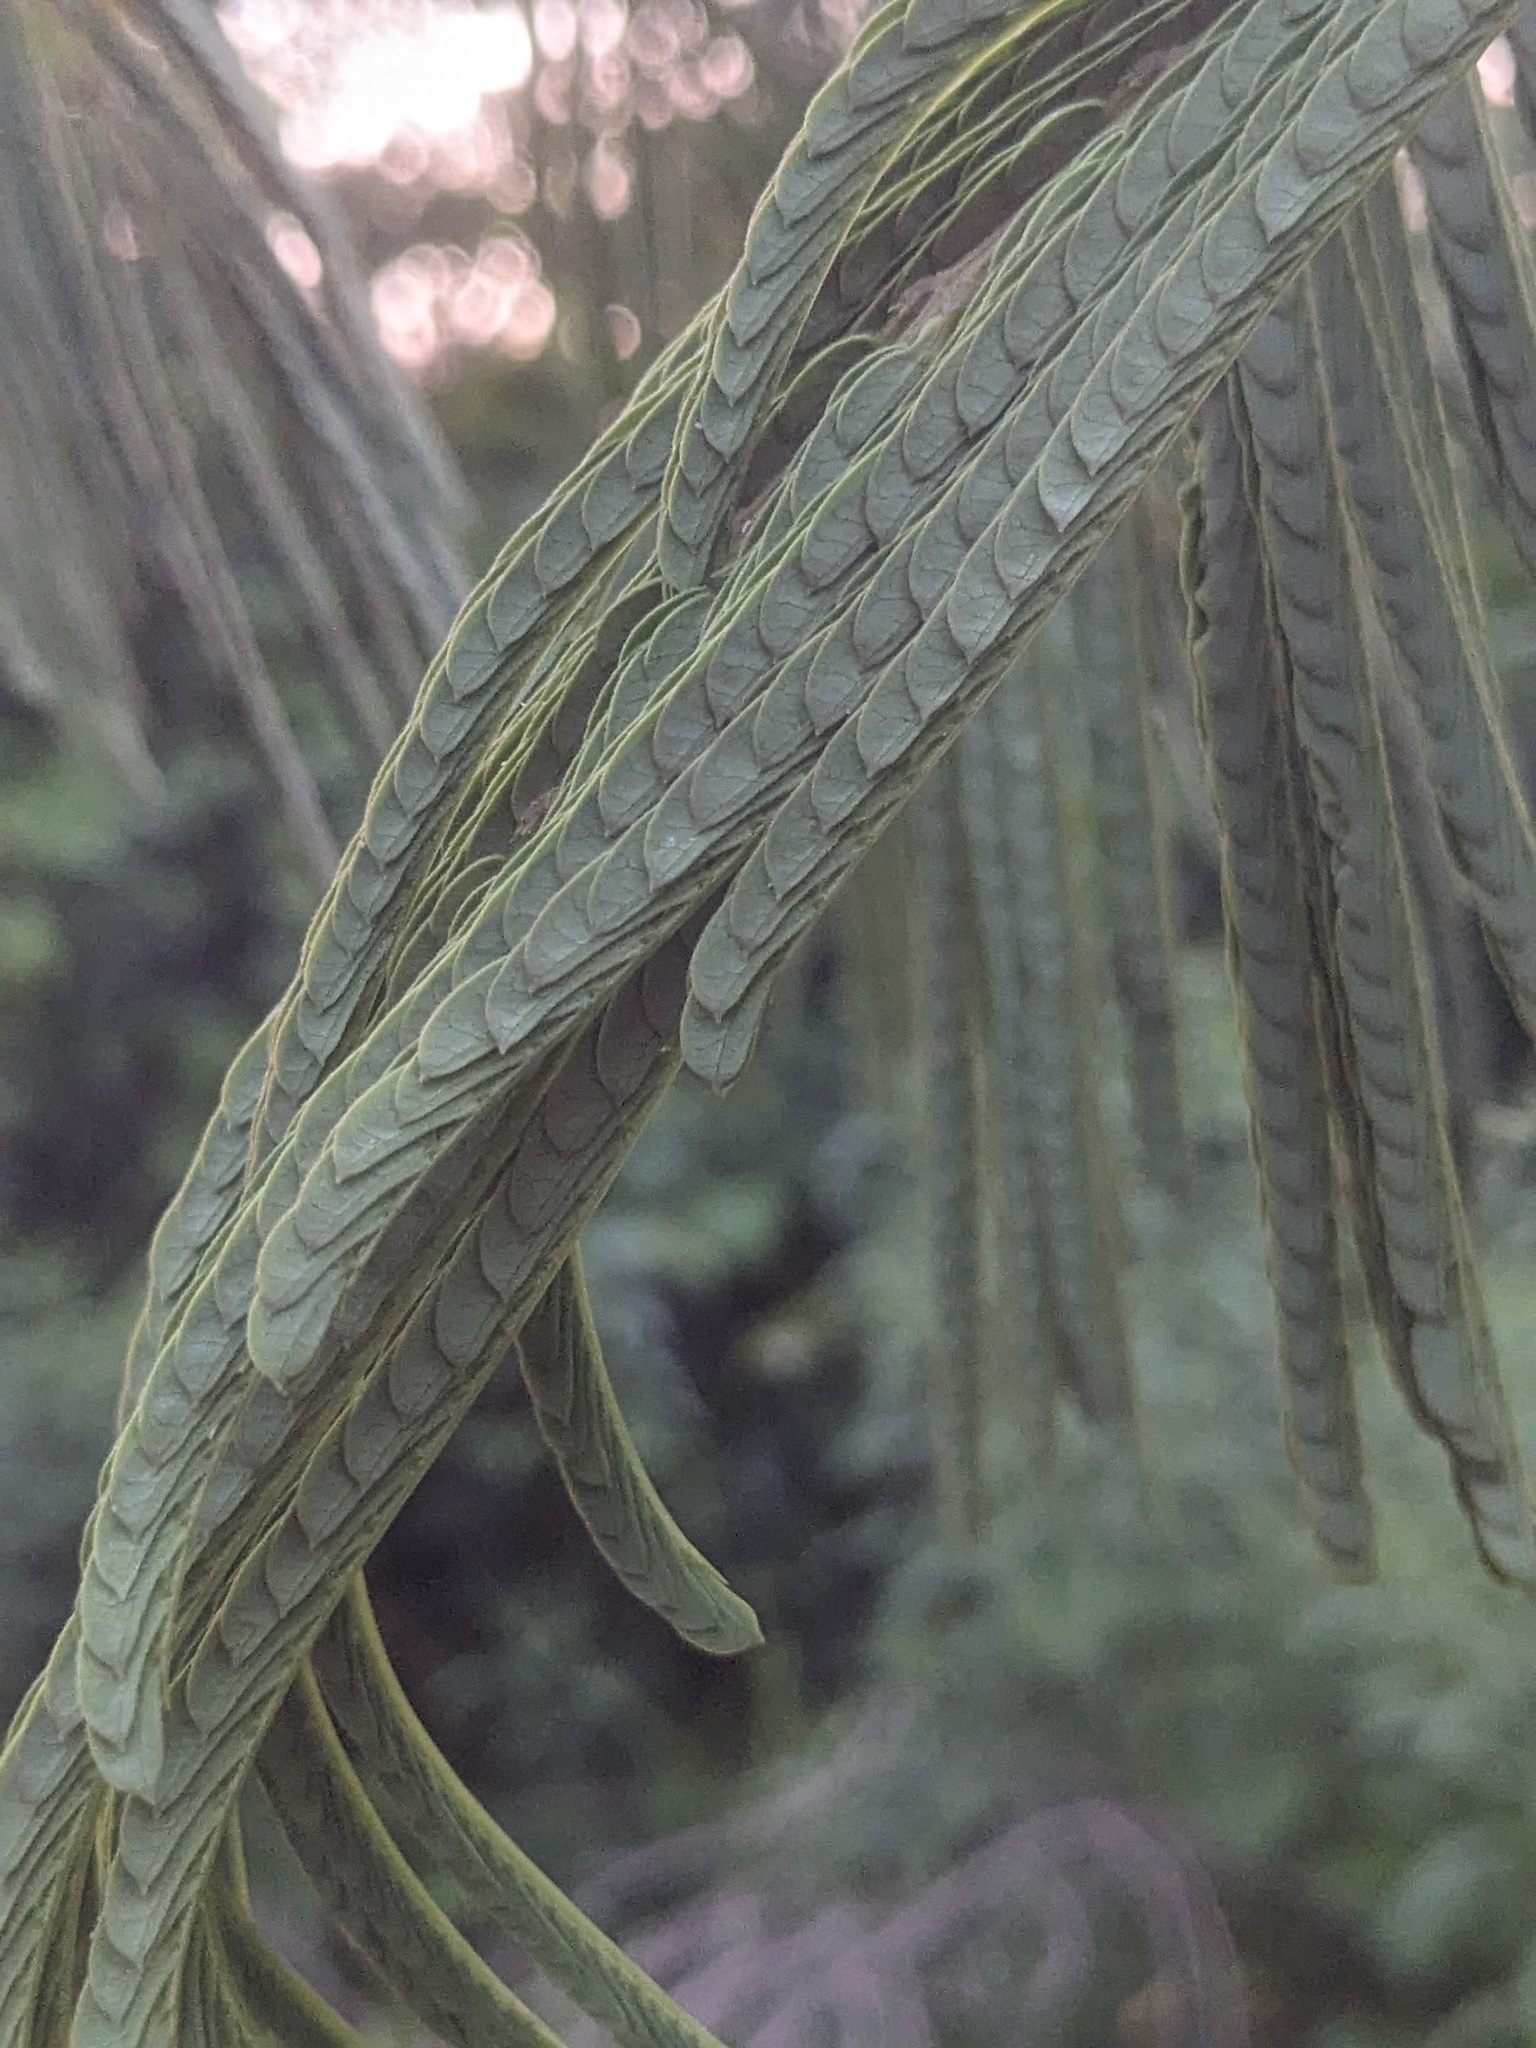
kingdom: Plantae
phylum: Tracheophyta
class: Magnoliopsida
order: Fabales
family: Fabaceae
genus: Albizia
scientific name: Albizia julibrissin
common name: Silktree
